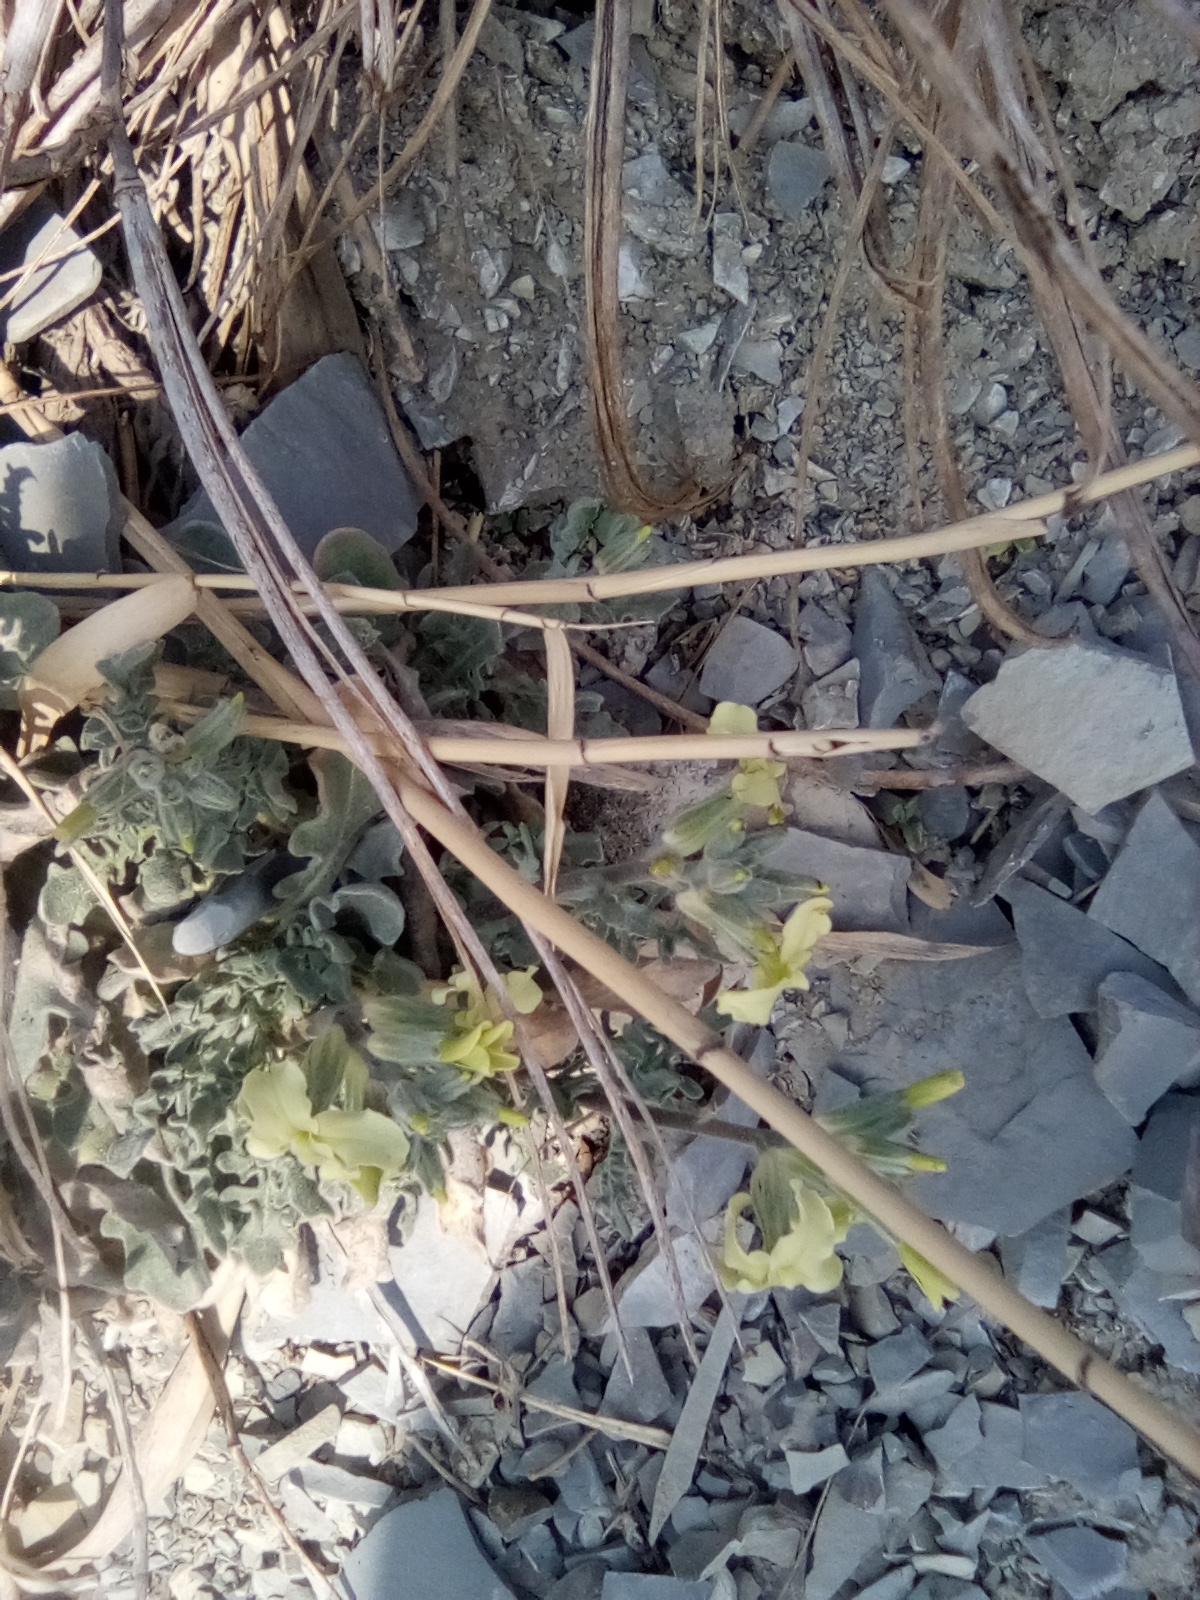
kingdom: Plantae
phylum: Tracheophyta
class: Magnoliopsida
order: Brassicales
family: Brassicaceae
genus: Matthiola
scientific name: Matthiola odoratissima
